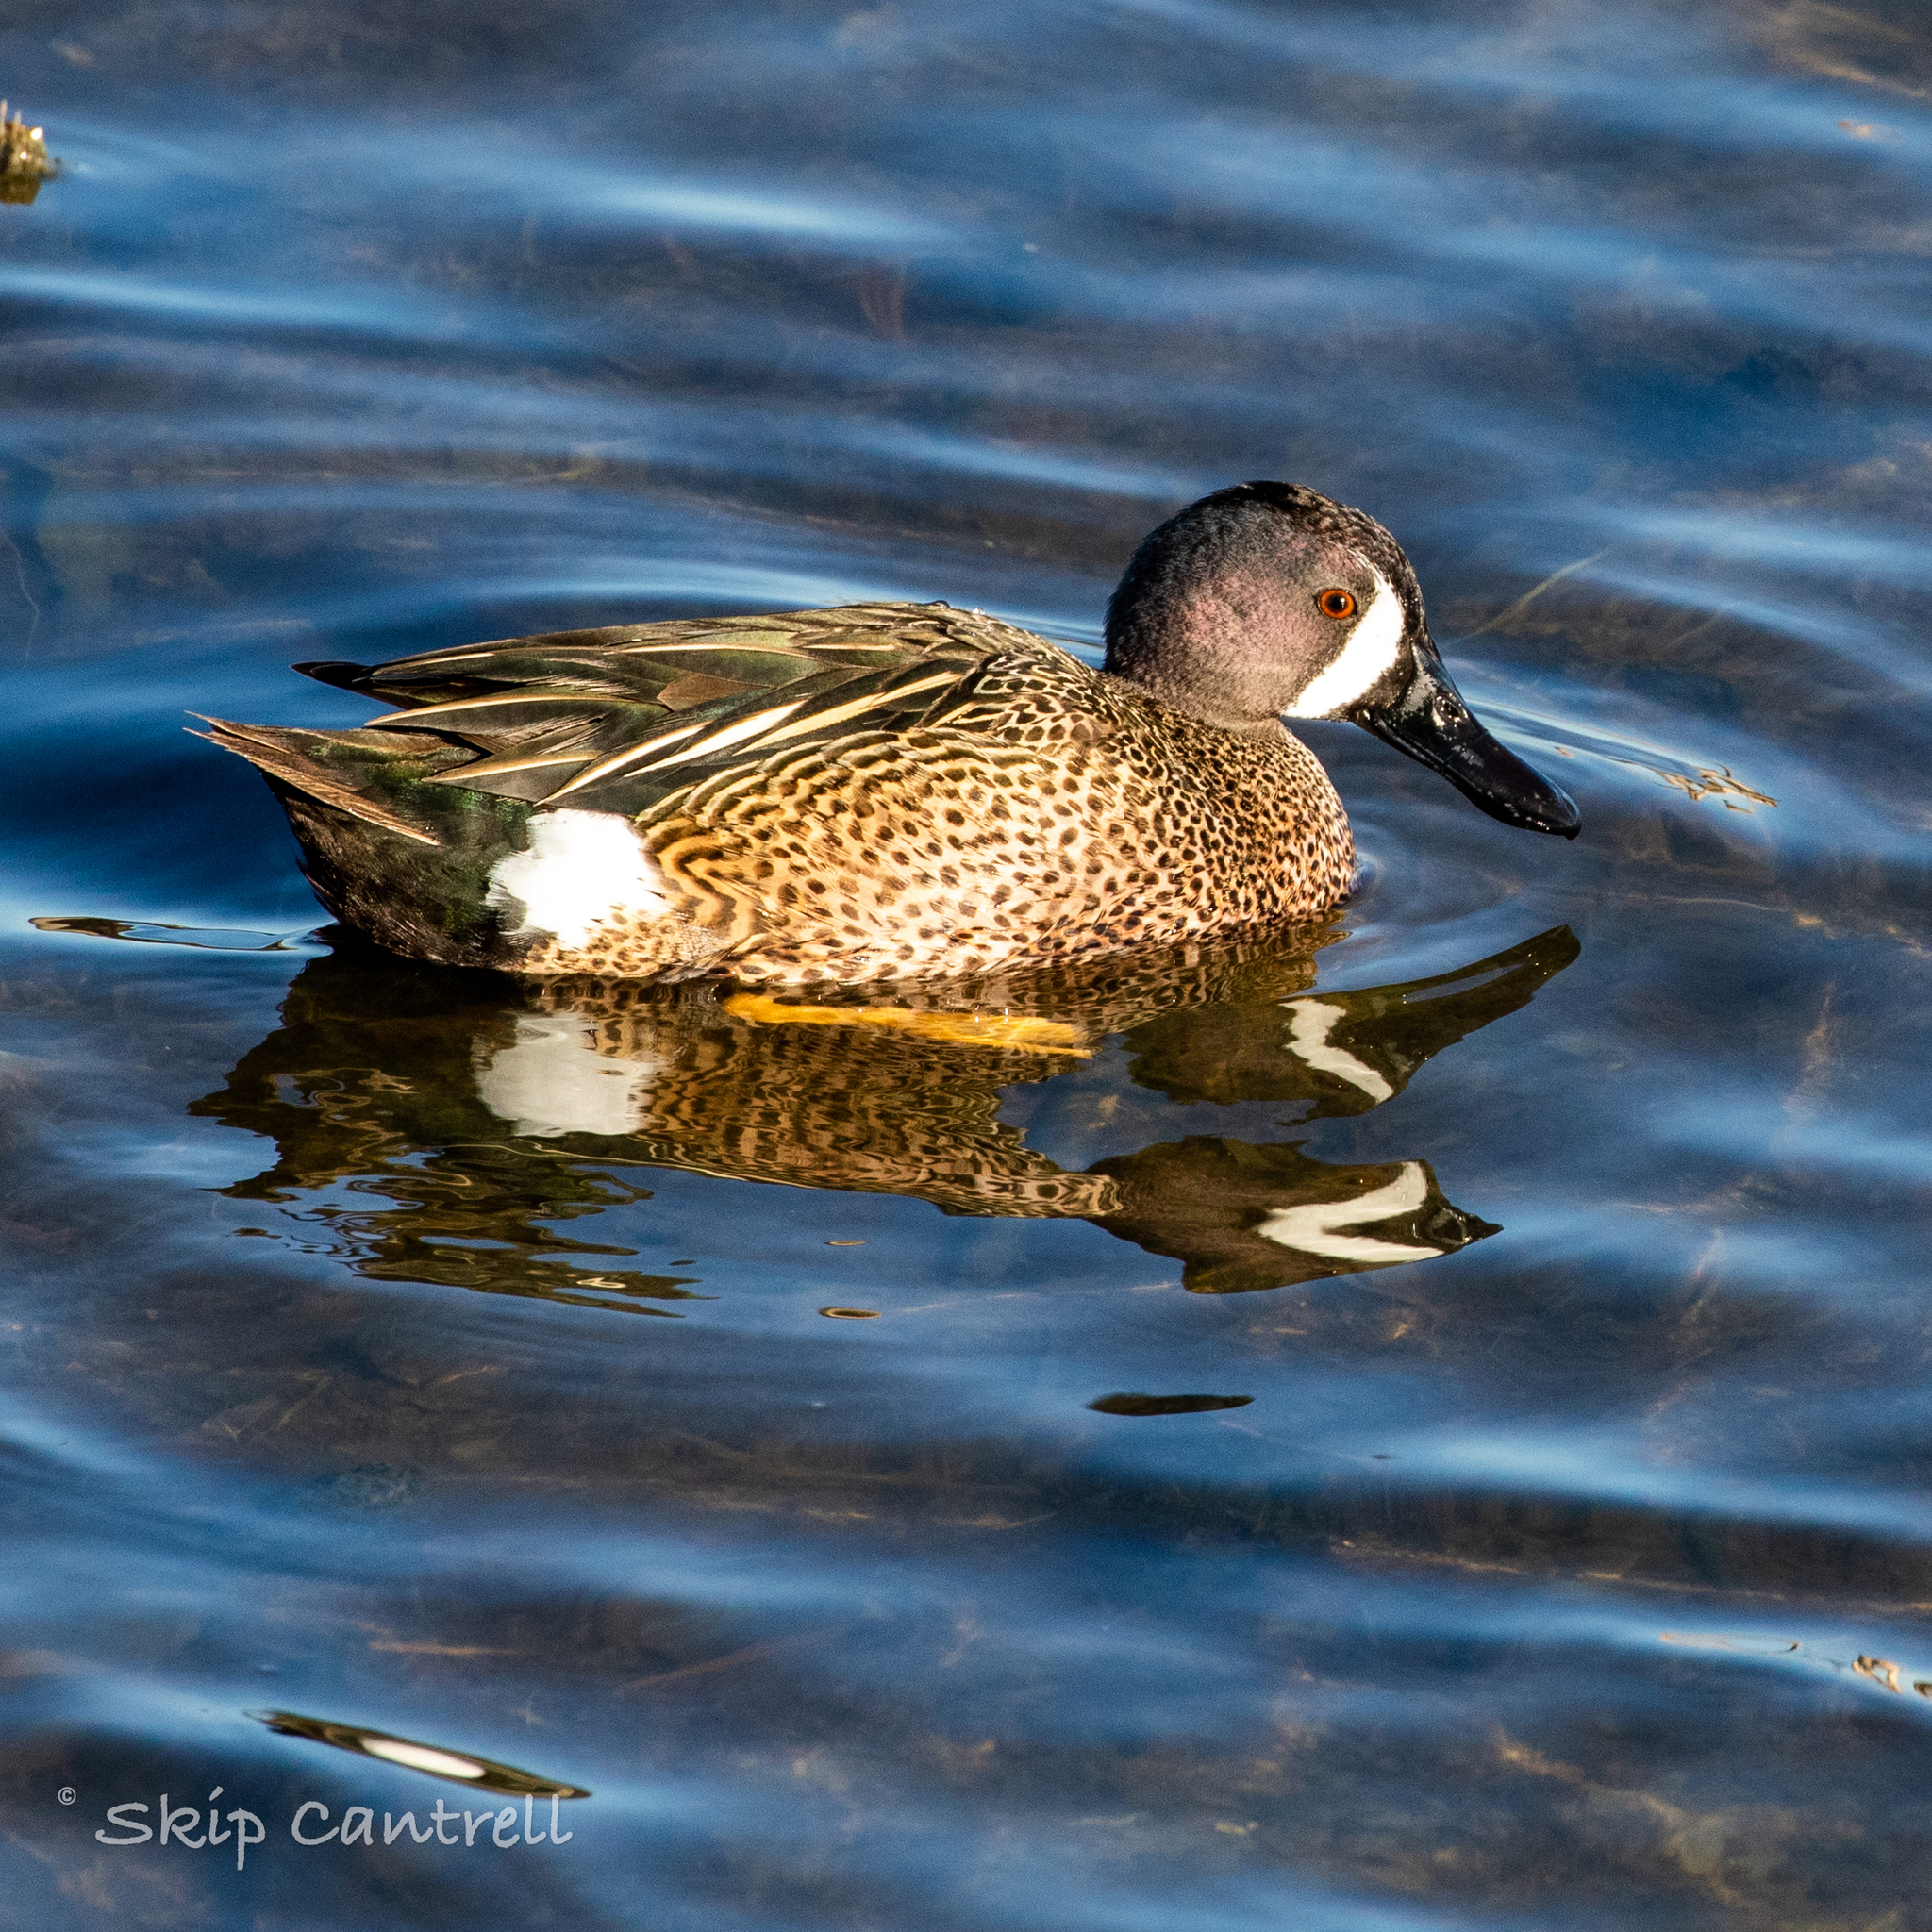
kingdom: Animalia
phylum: Chordata
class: Aves
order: Anseriformes
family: Anatidae
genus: Spatula
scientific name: Spatula discors
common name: Blue-winged teal
